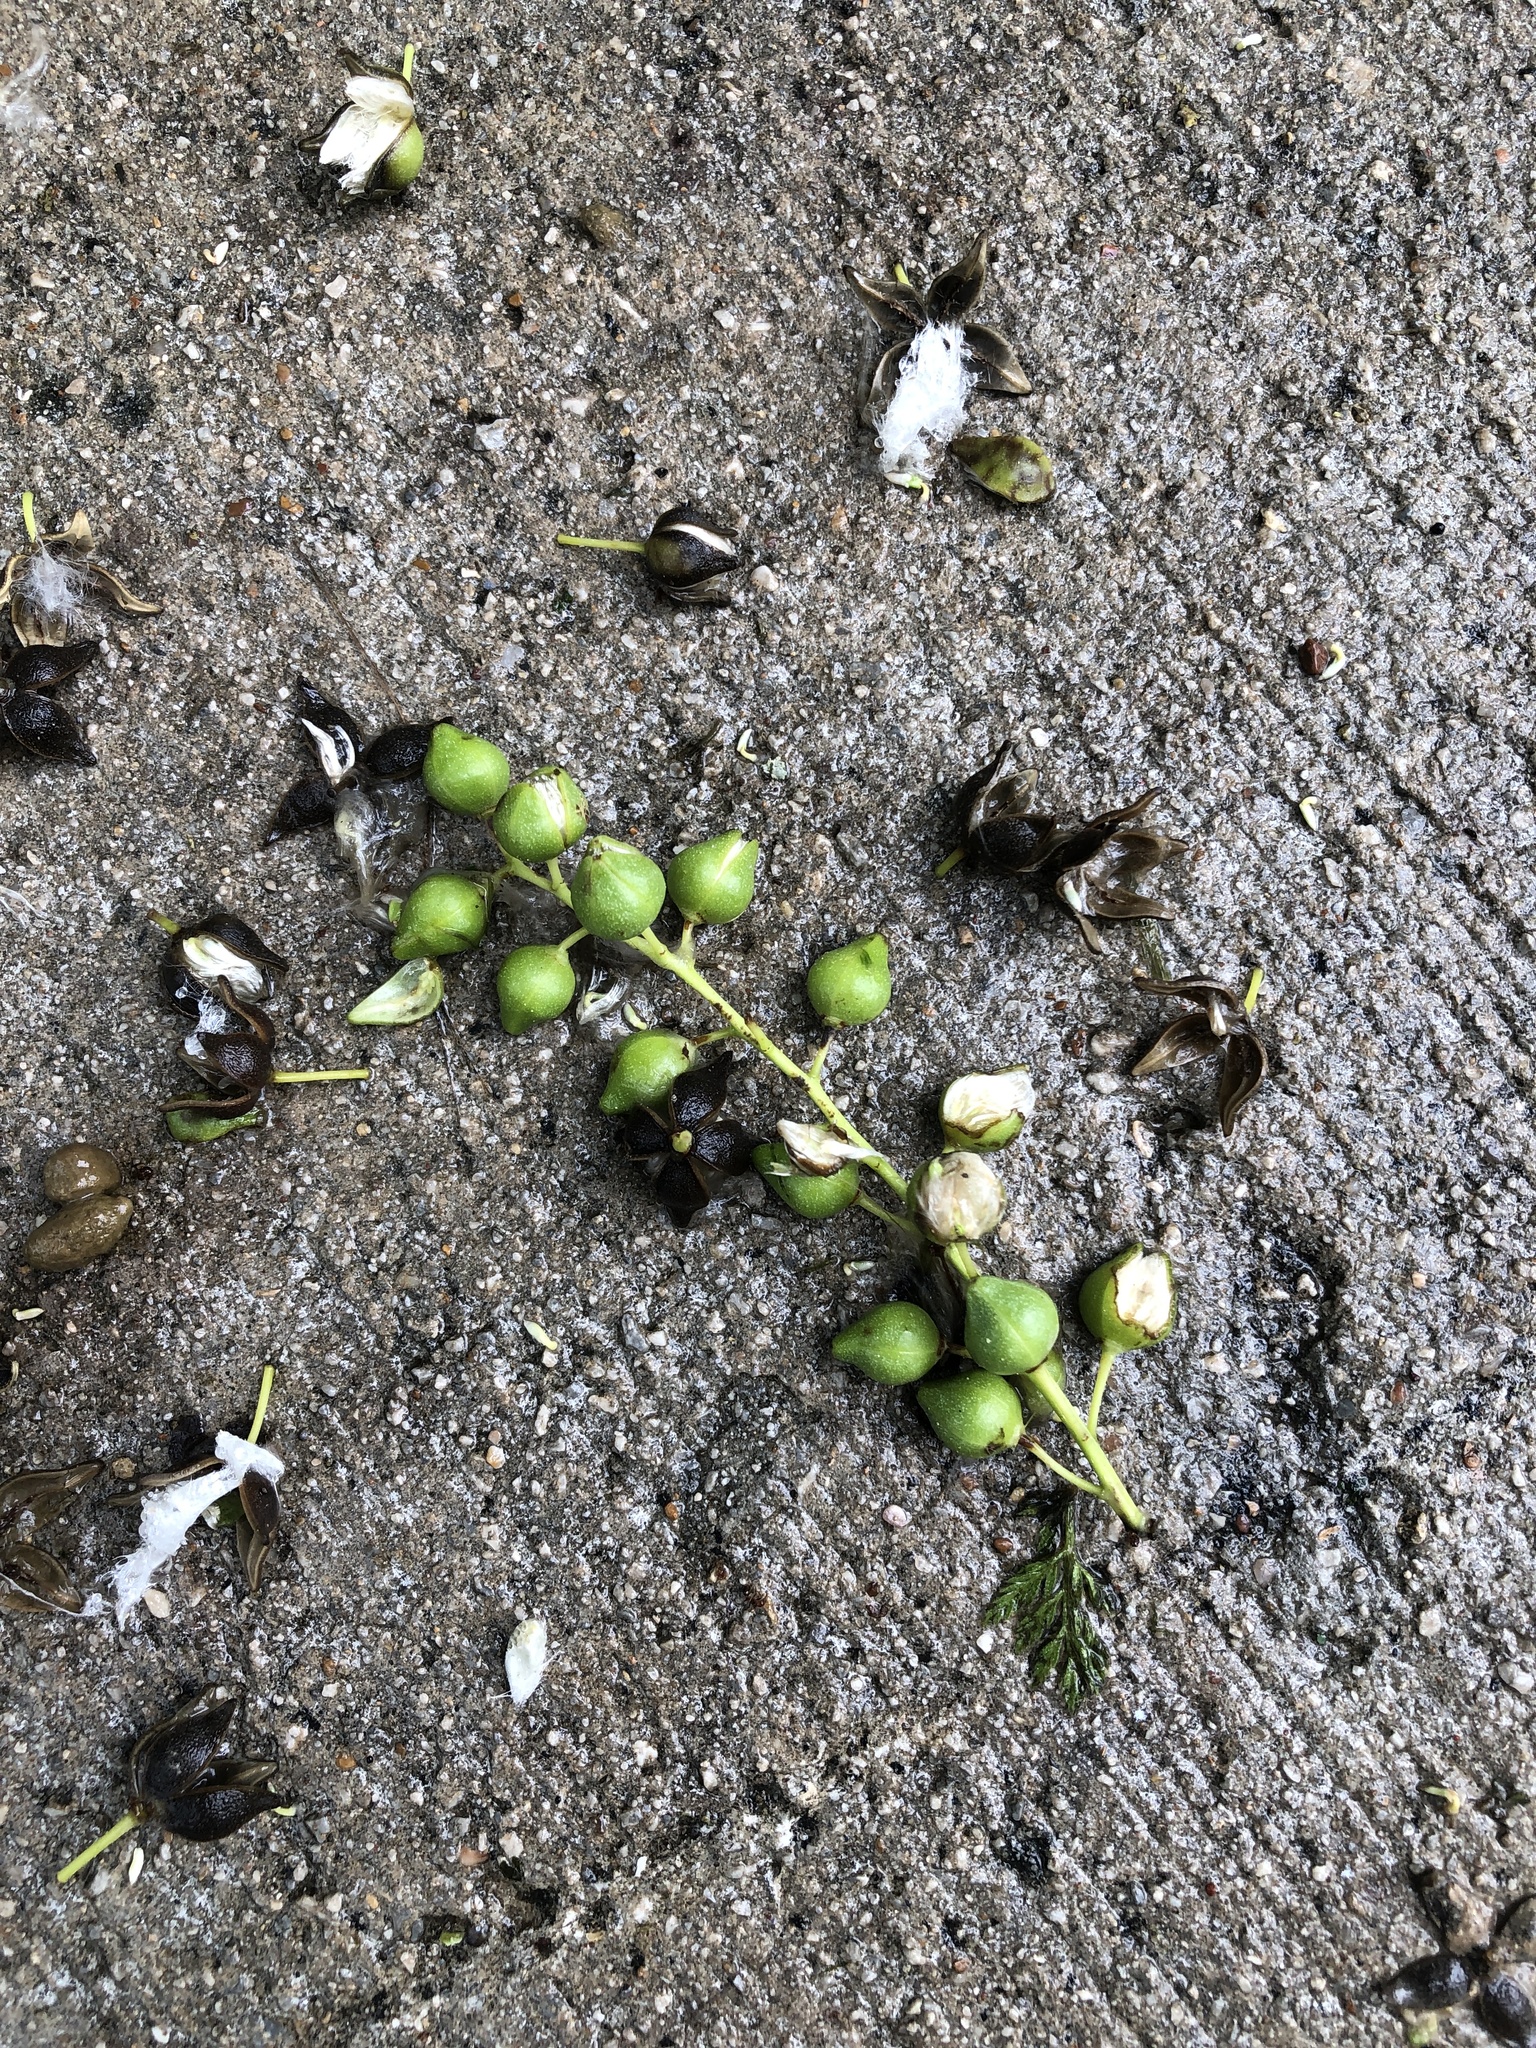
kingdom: Plantae
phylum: Tracheophyta
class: Magnoliopsida
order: Malpighiales
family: Salicaceae
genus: Populus
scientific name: Populus deltoides
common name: Eastern cottonwood
